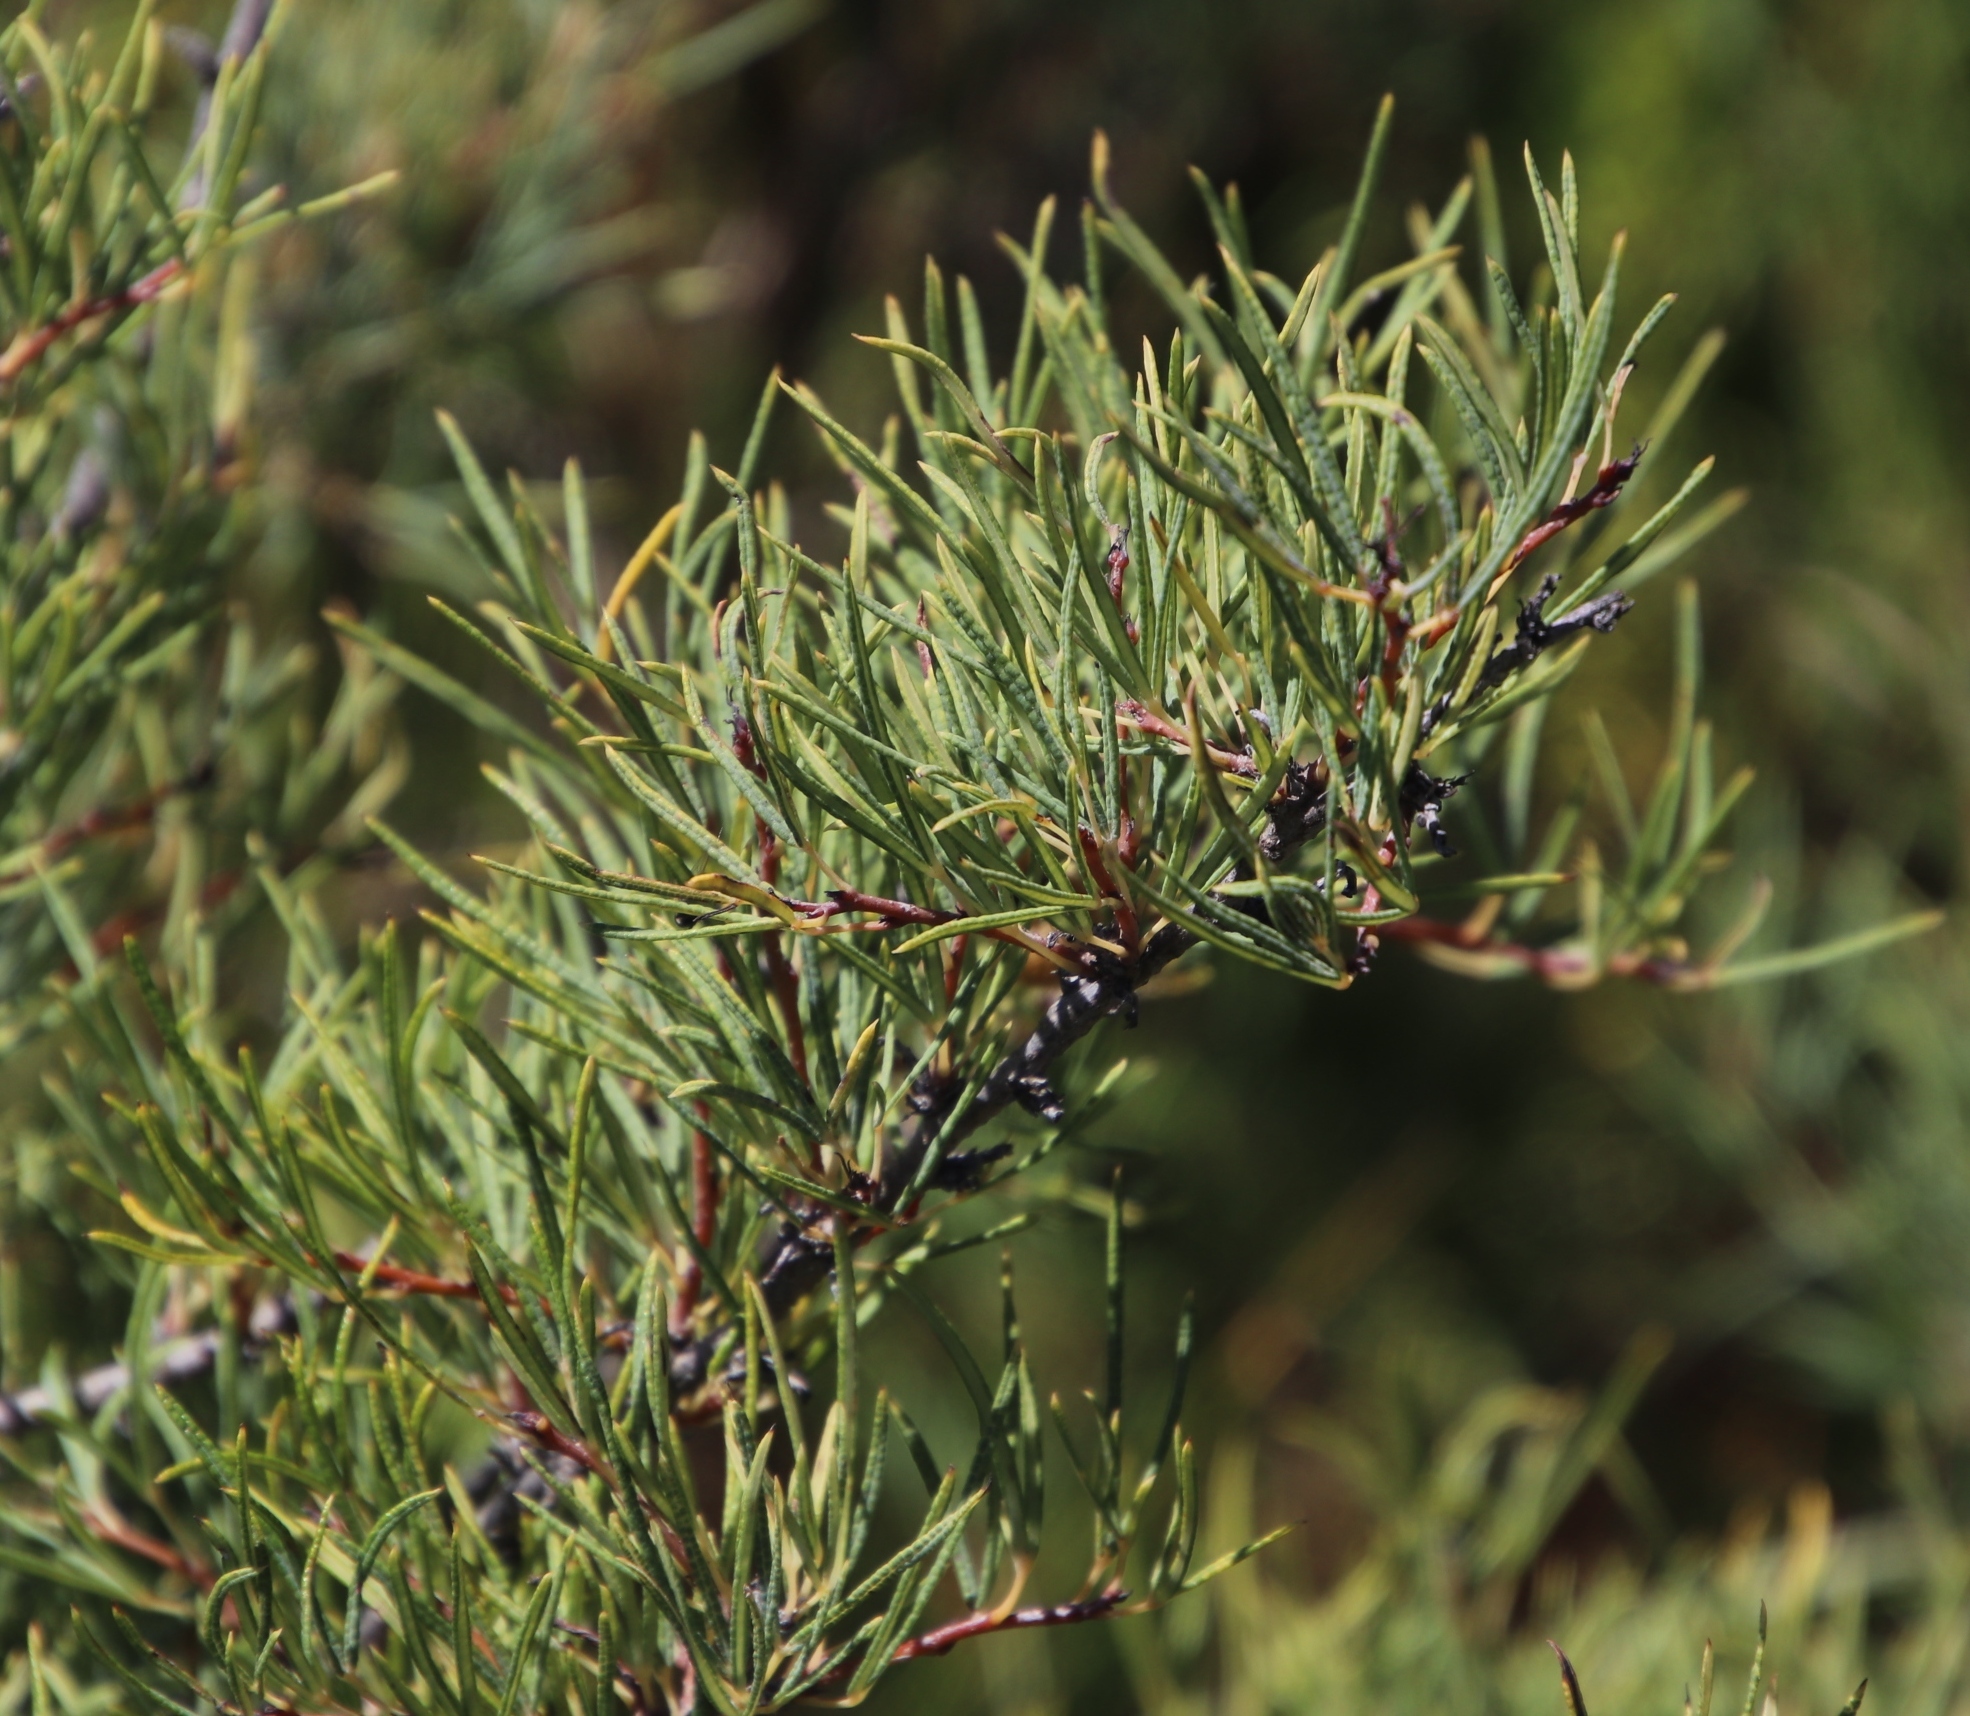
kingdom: Plantae
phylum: Tracheophyta
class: Magnoliopsida
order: Sapindales
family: Anacardiaceae
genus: Searsia
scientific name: Searsia rosmarinifolia
